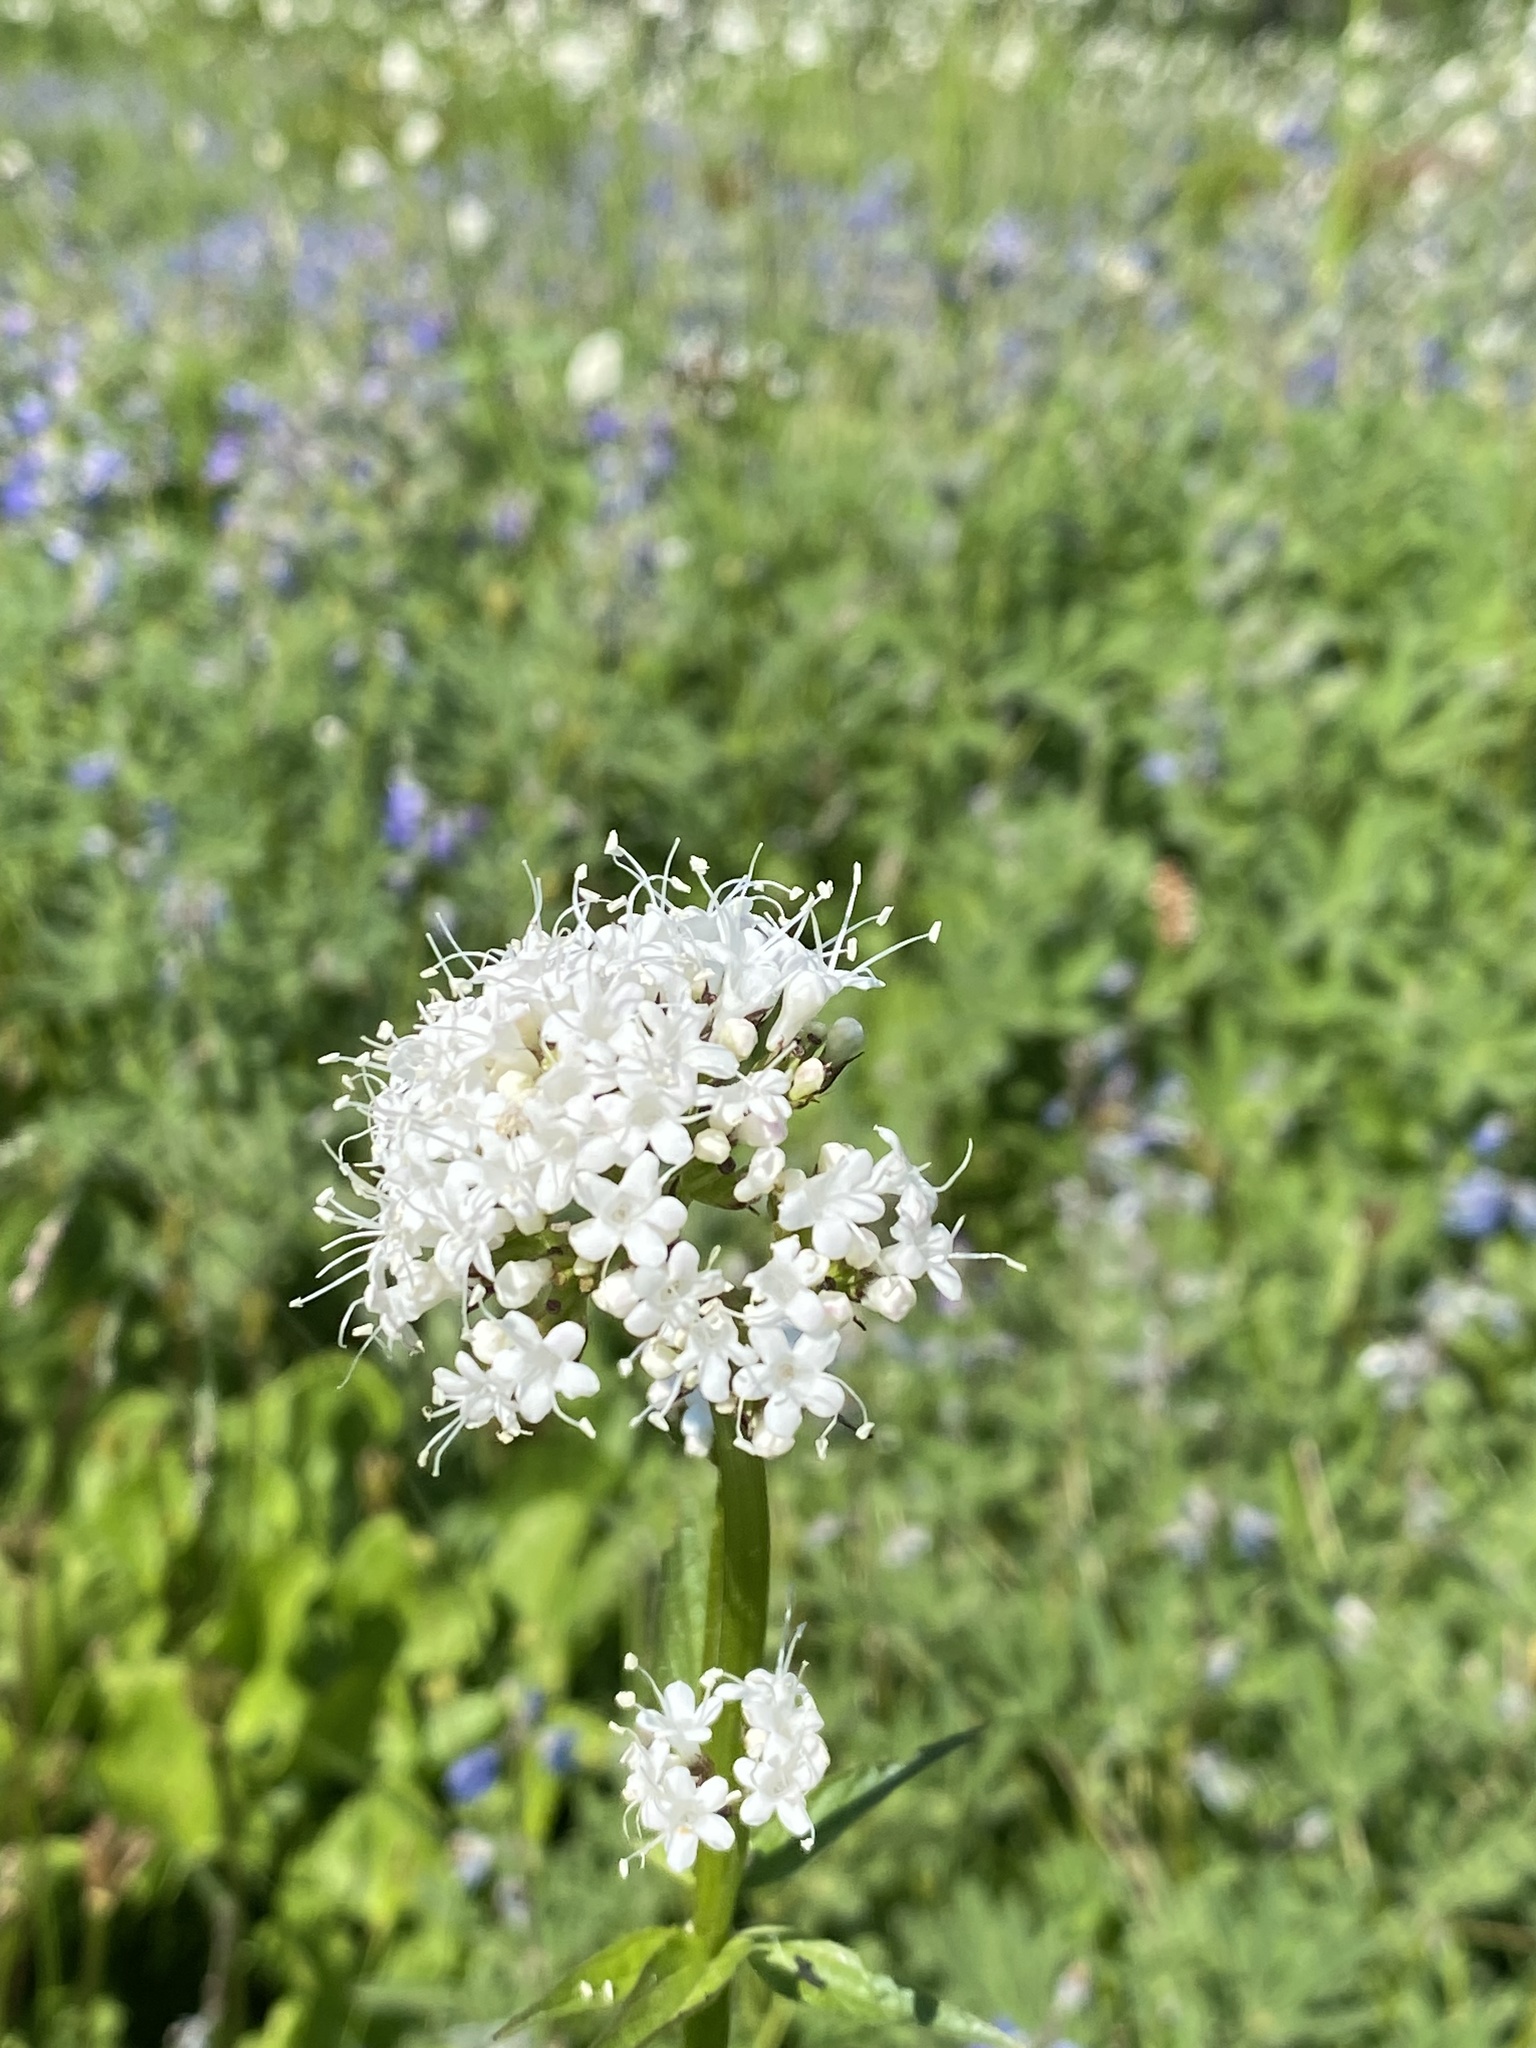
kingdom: Plantae
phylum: Tracheophyta
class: Magnoliopsida
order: Dipsacales
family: Caprifoliaceae
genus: Valeriana
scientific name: Valeriana sitchensis
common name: Pacific valerian
